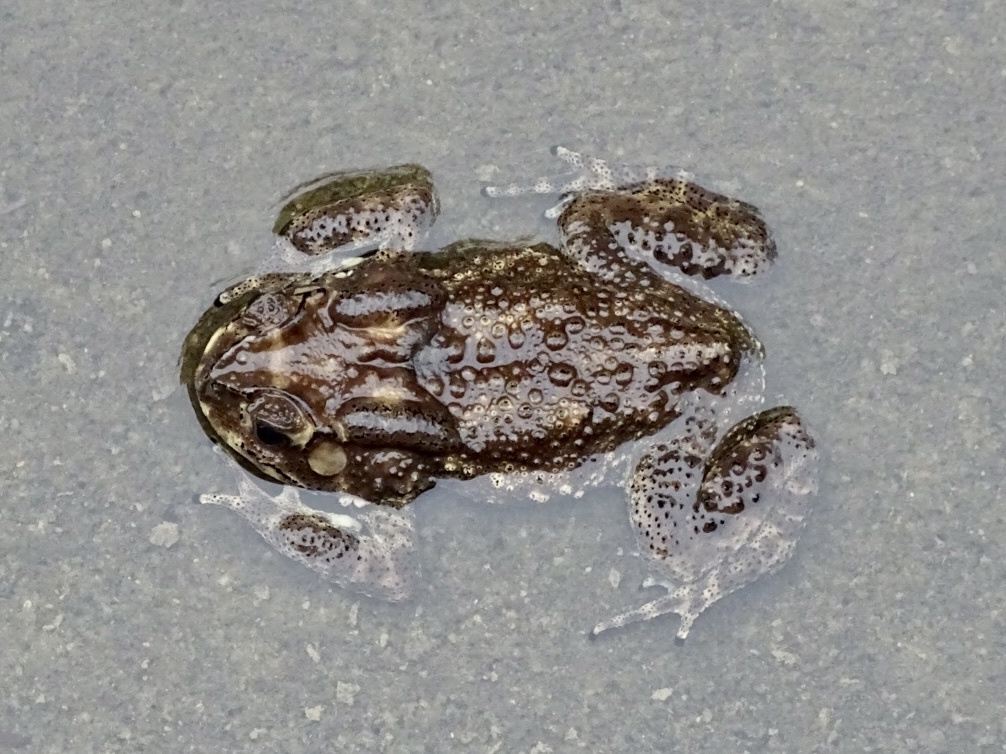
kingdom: Animalia
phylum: Chordata
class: Amphibia
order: Anura
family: Bufonidae
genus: Duttaphrynus
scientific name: Duttaphrynus melanostictus
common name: Common sunda toad
